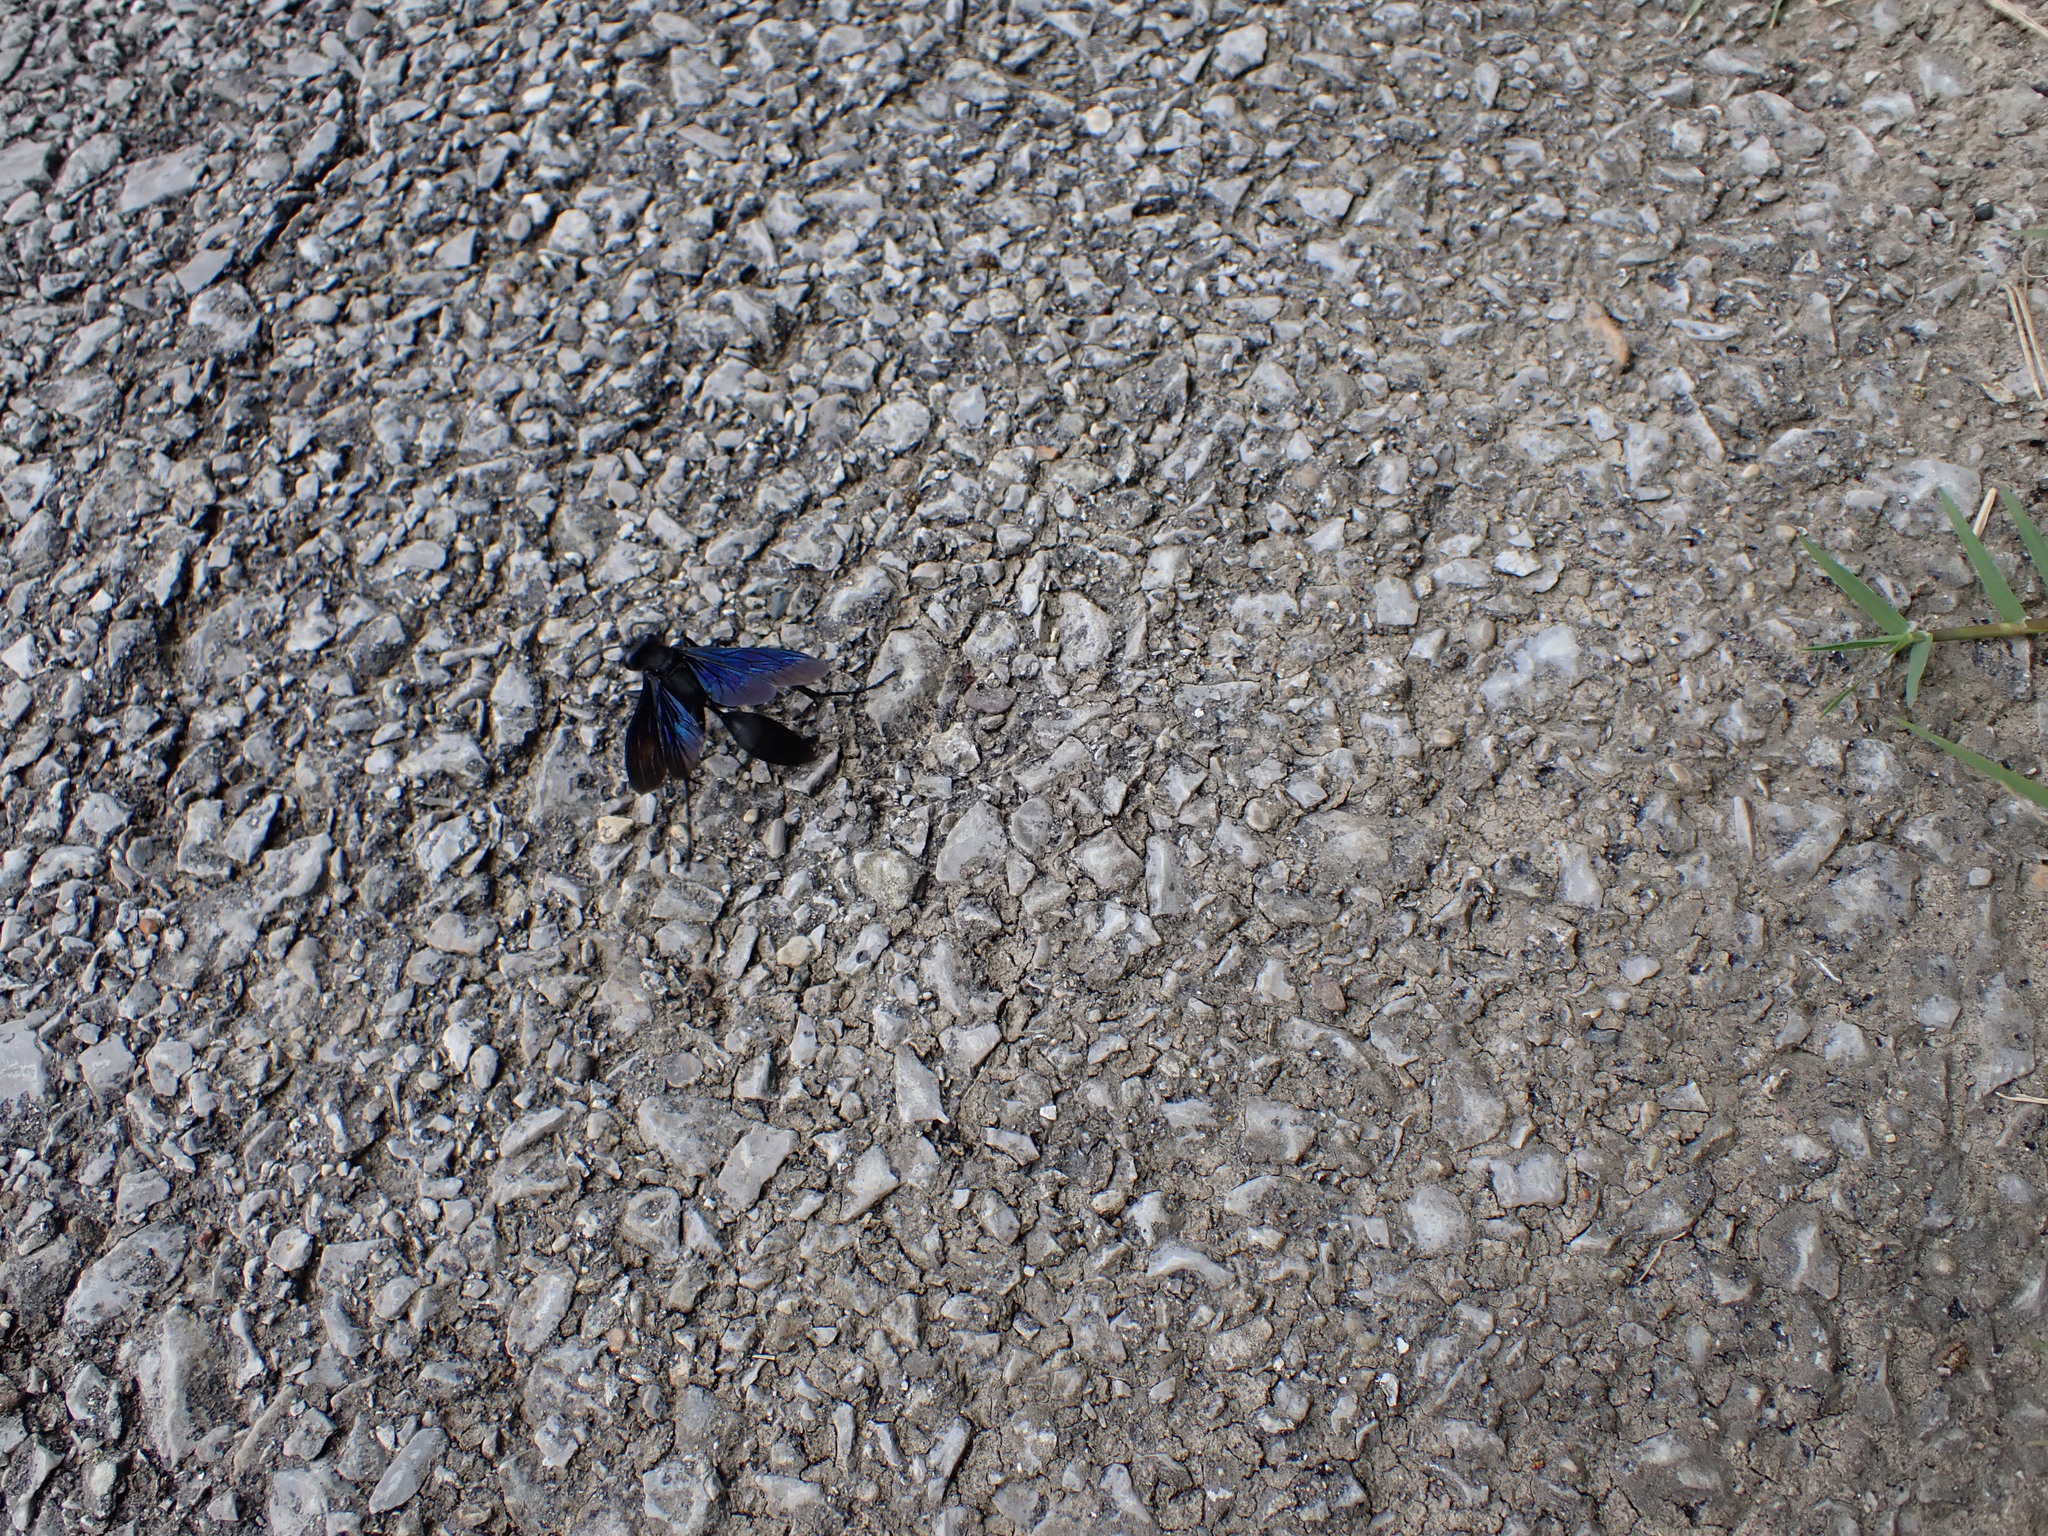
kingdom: Animalia
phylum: Arthropoda
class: Insecta
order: Hymenoptera
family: Sphecidae
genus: Sphex
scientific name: Sphex pensylvanicus
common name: Great black digger wasp
